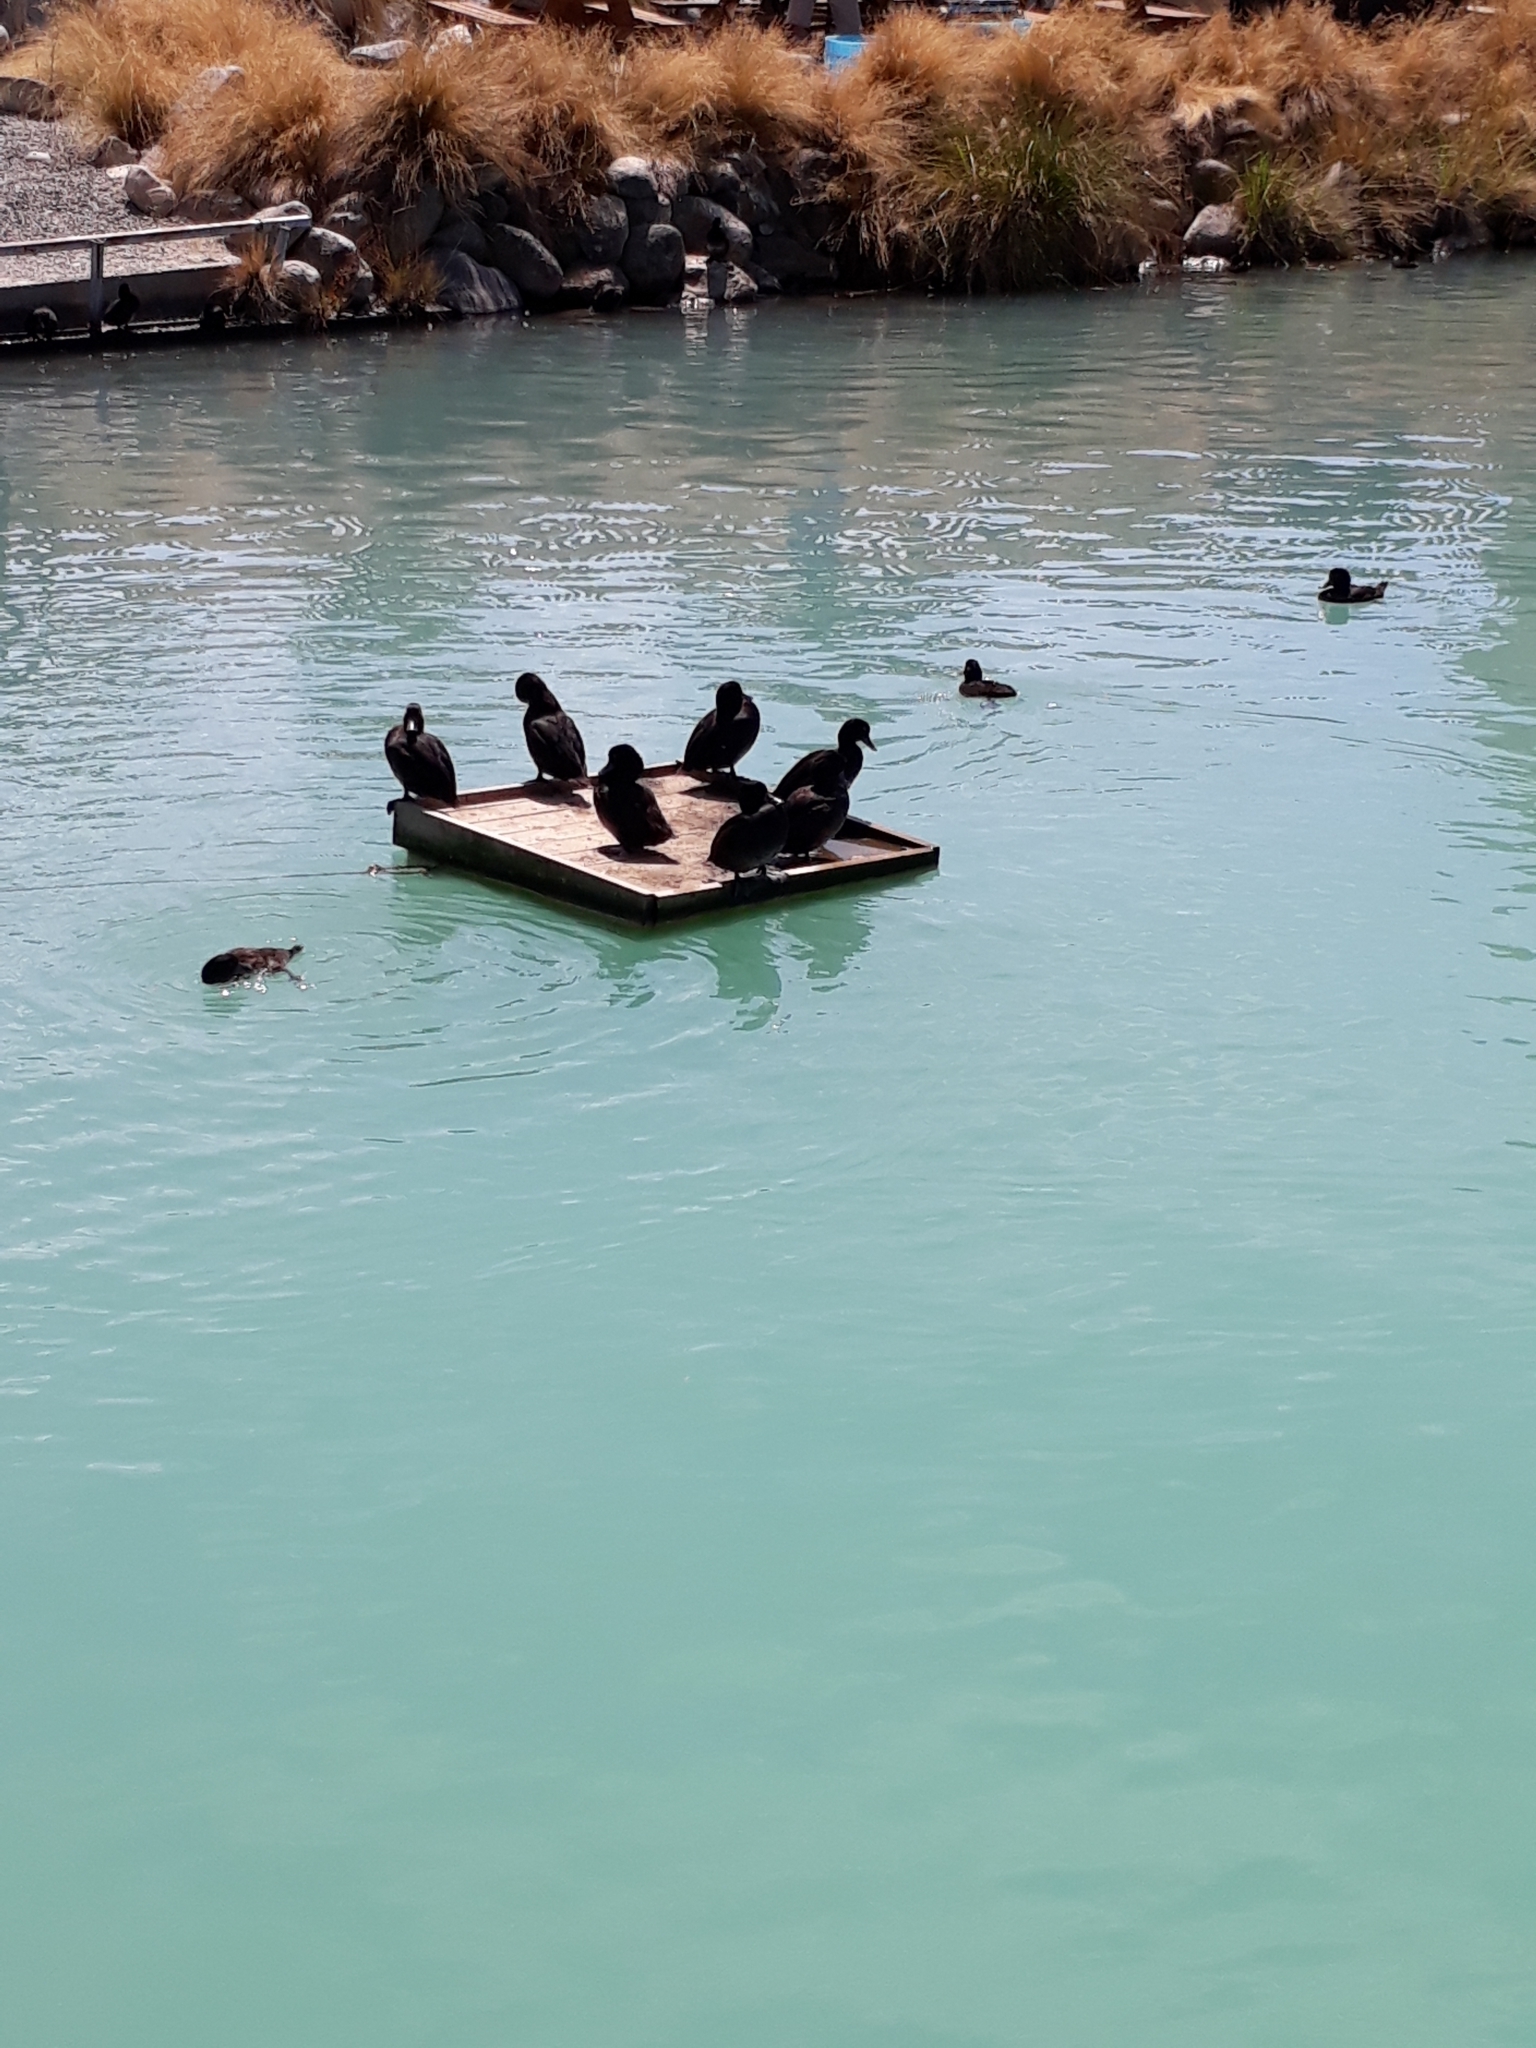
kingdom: Animalia
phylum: Chordata
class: Aves
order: Anseriformes
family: Anatidae
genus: Aythya
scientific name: Aythya novaeseelandiae
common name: New zealand scaup
